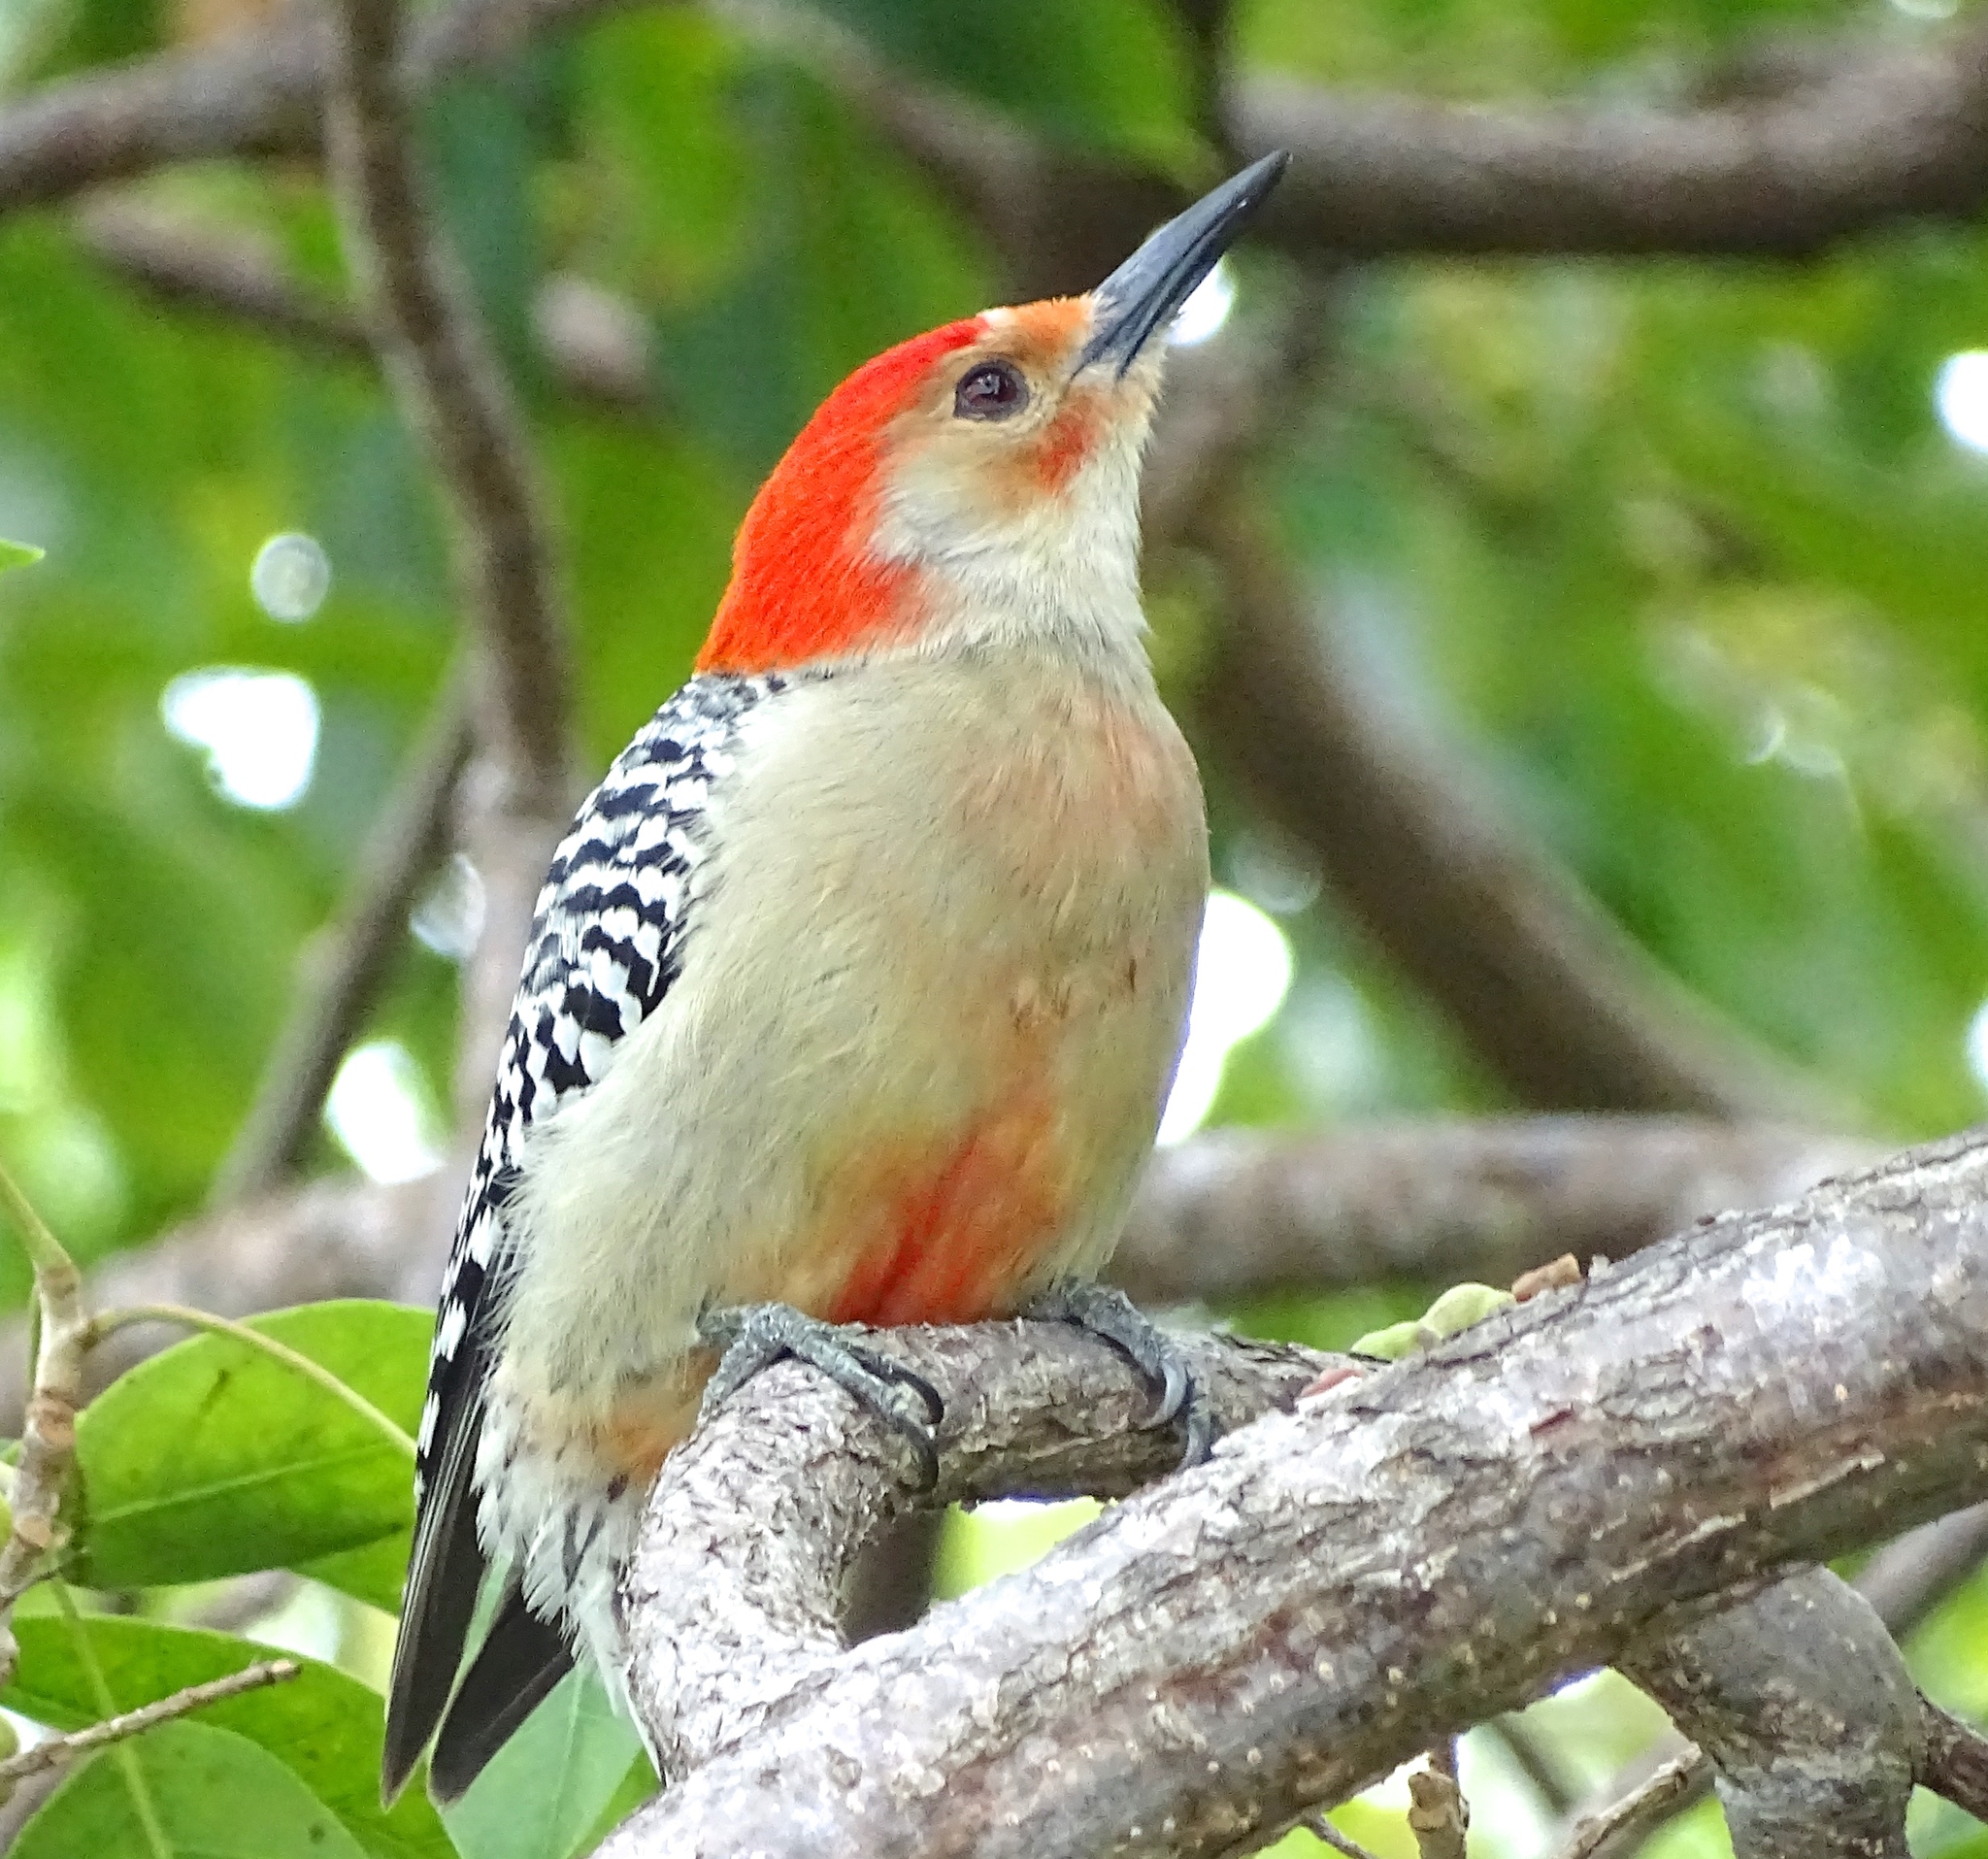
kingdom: Animalia
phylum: Chordata
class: Aves
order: Piciformes
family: Picidae
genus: Melanerpes
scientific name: Melanerpes carolinus
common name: Red-bellied woodpecker
